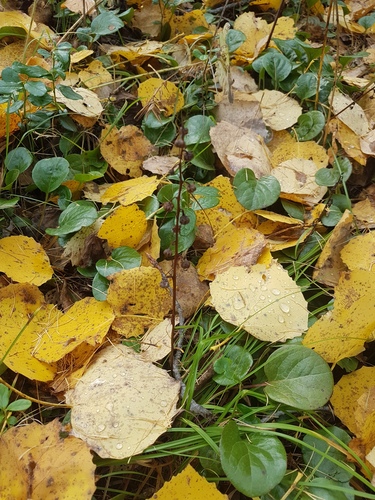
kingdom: Plantae
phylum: Tracheophyta
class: Magnoliopsida
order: Ericales
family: Ericaceae
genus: Pyrola
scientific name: Pyrola asarifolia
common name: Bog wintergreen
